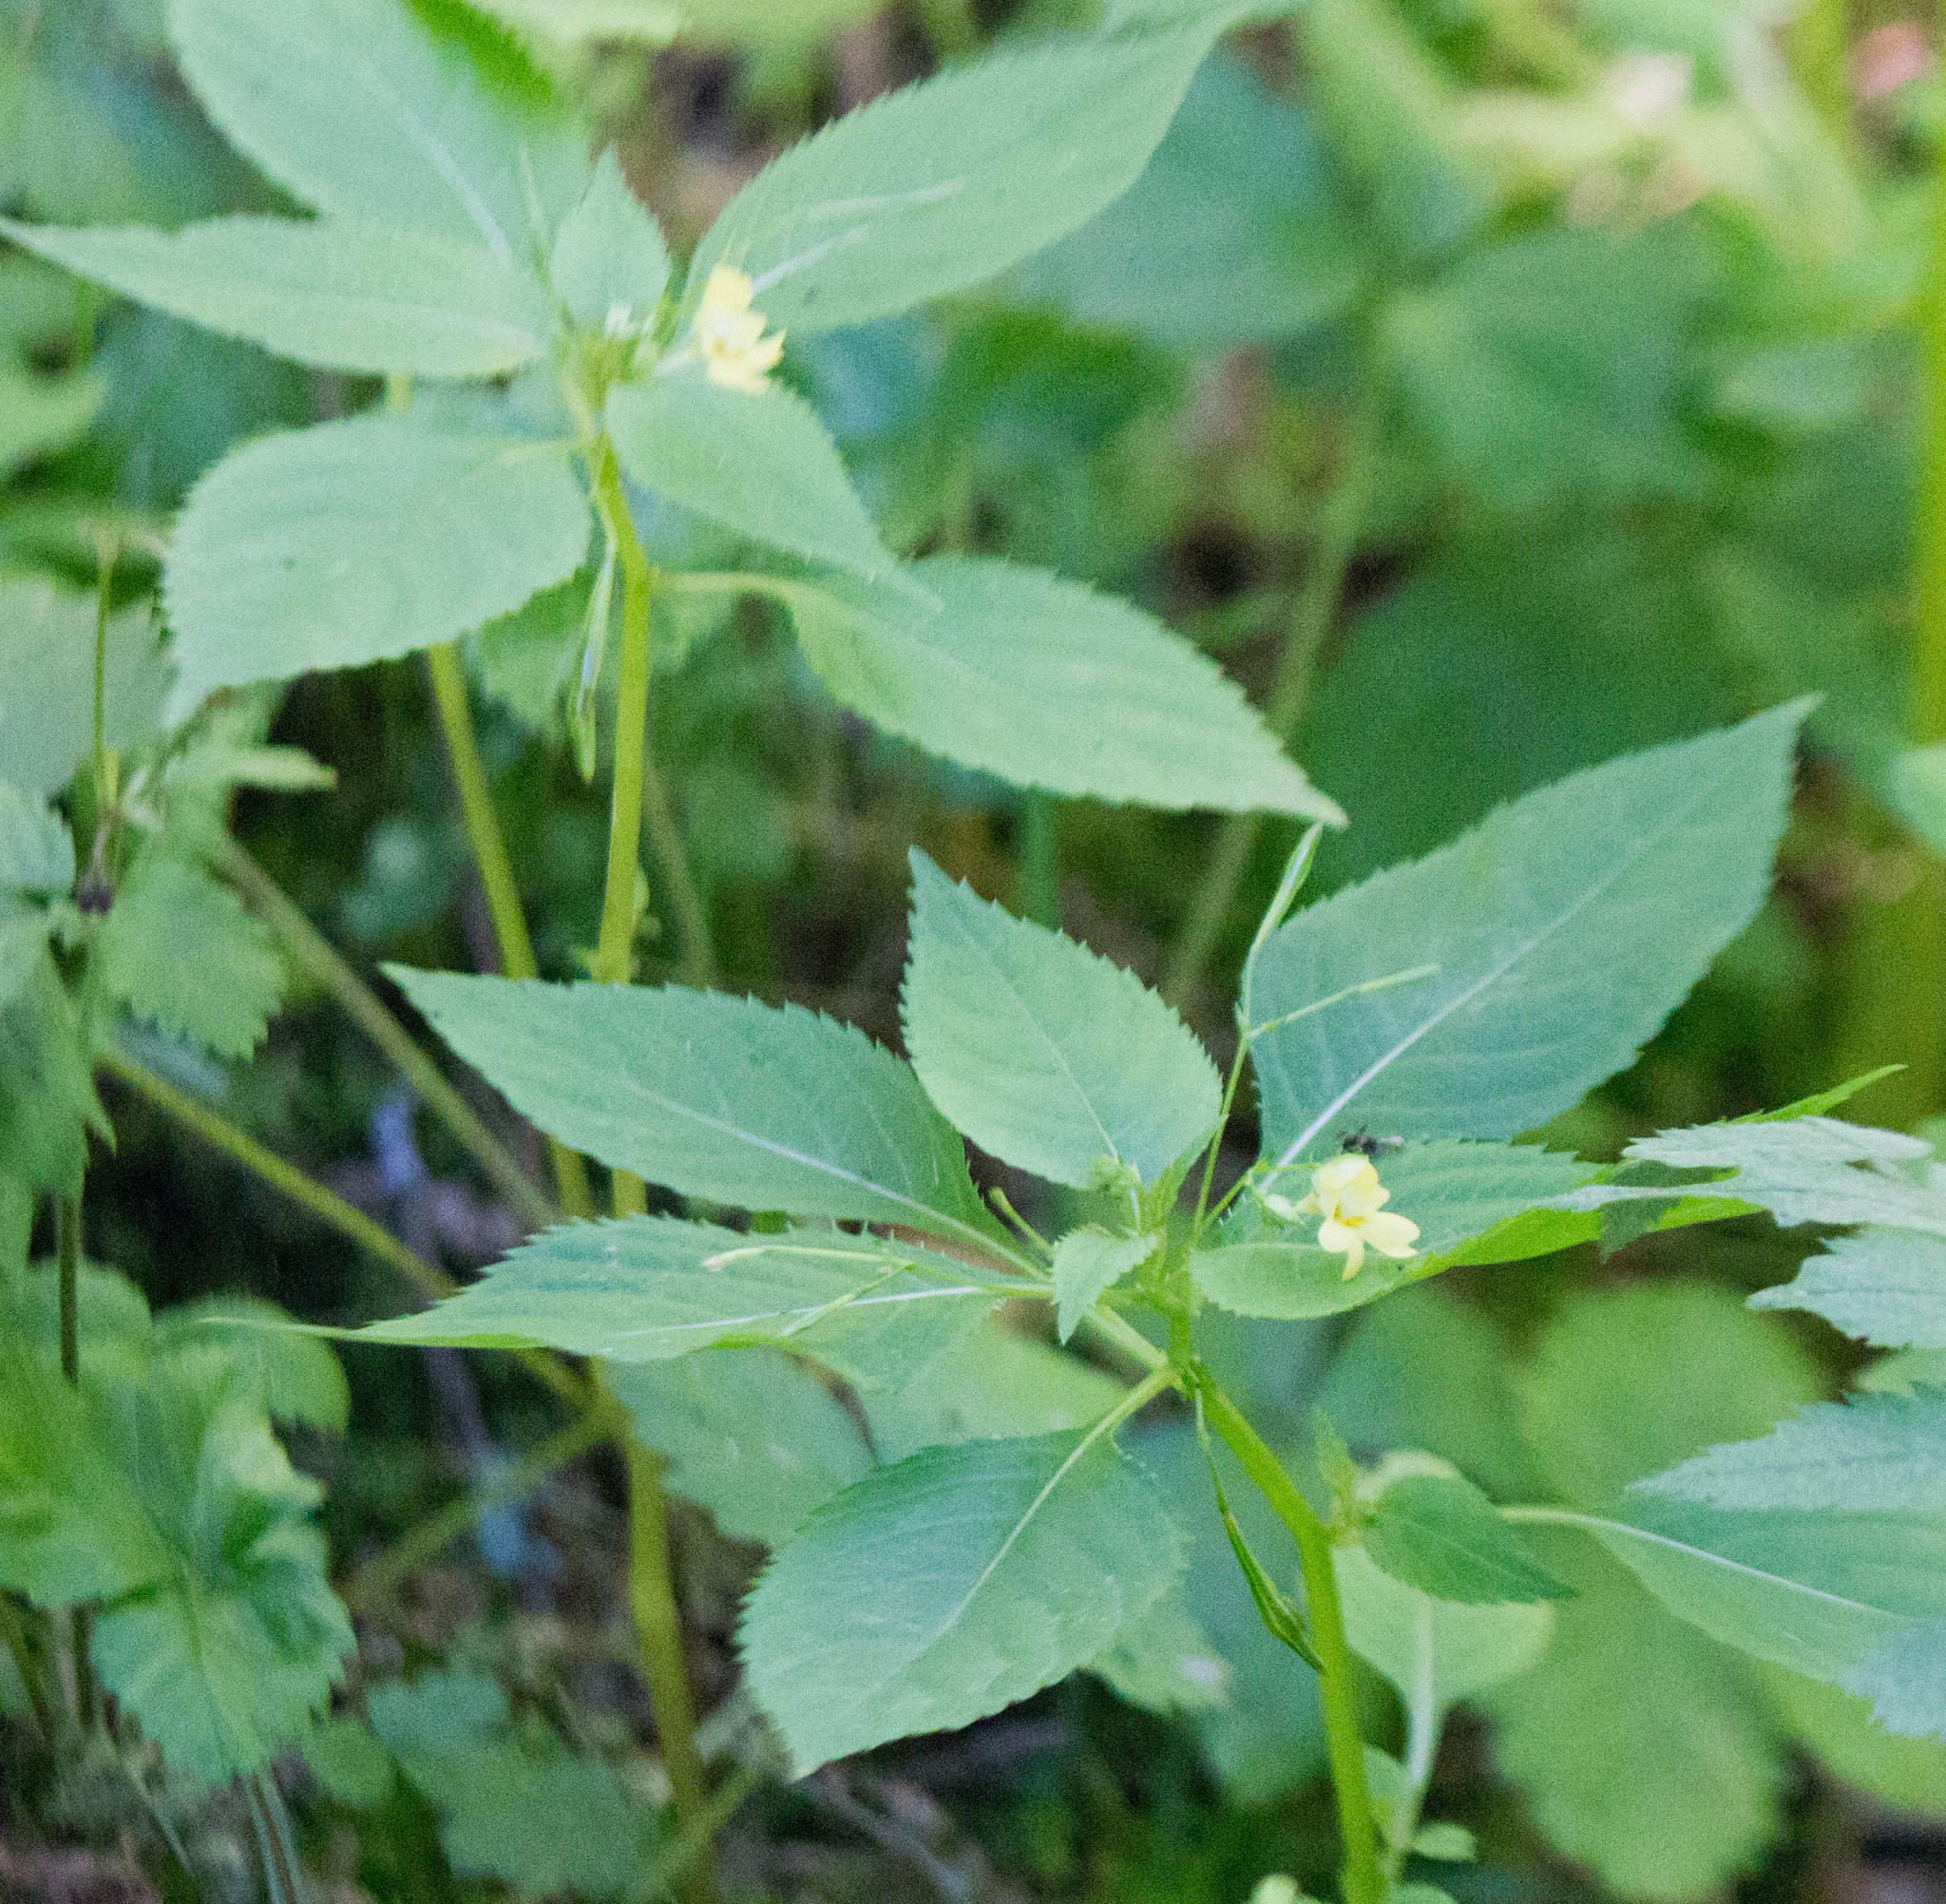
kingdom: Plantae
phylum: Tracheophyta
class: Magnoliopsida
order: Ericales
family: Balsaminaceae
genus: Impatiens
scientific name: Impatiens parviflora
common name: Small balsam
